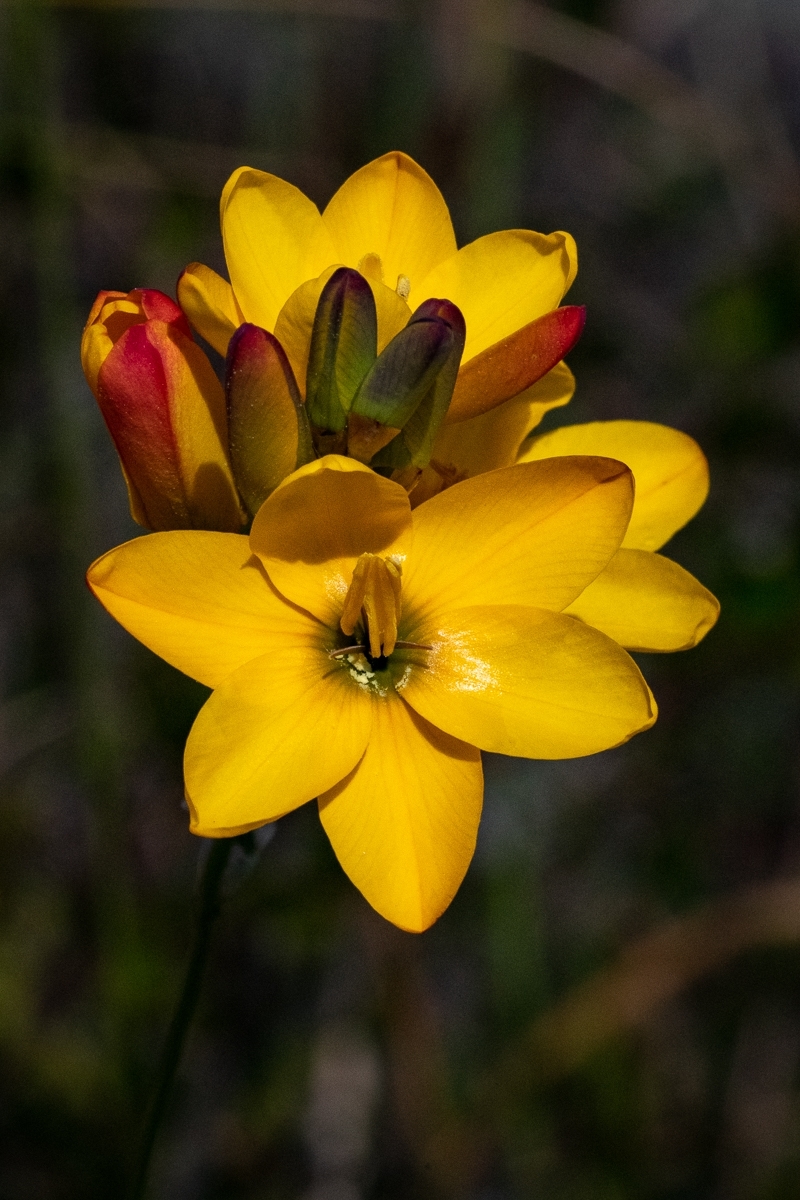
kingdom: Plantae
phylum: Tracheophyta
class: Liliopsida
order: Asparagales
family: Iridaceae
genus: Ixia
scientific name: Ixia dubia
